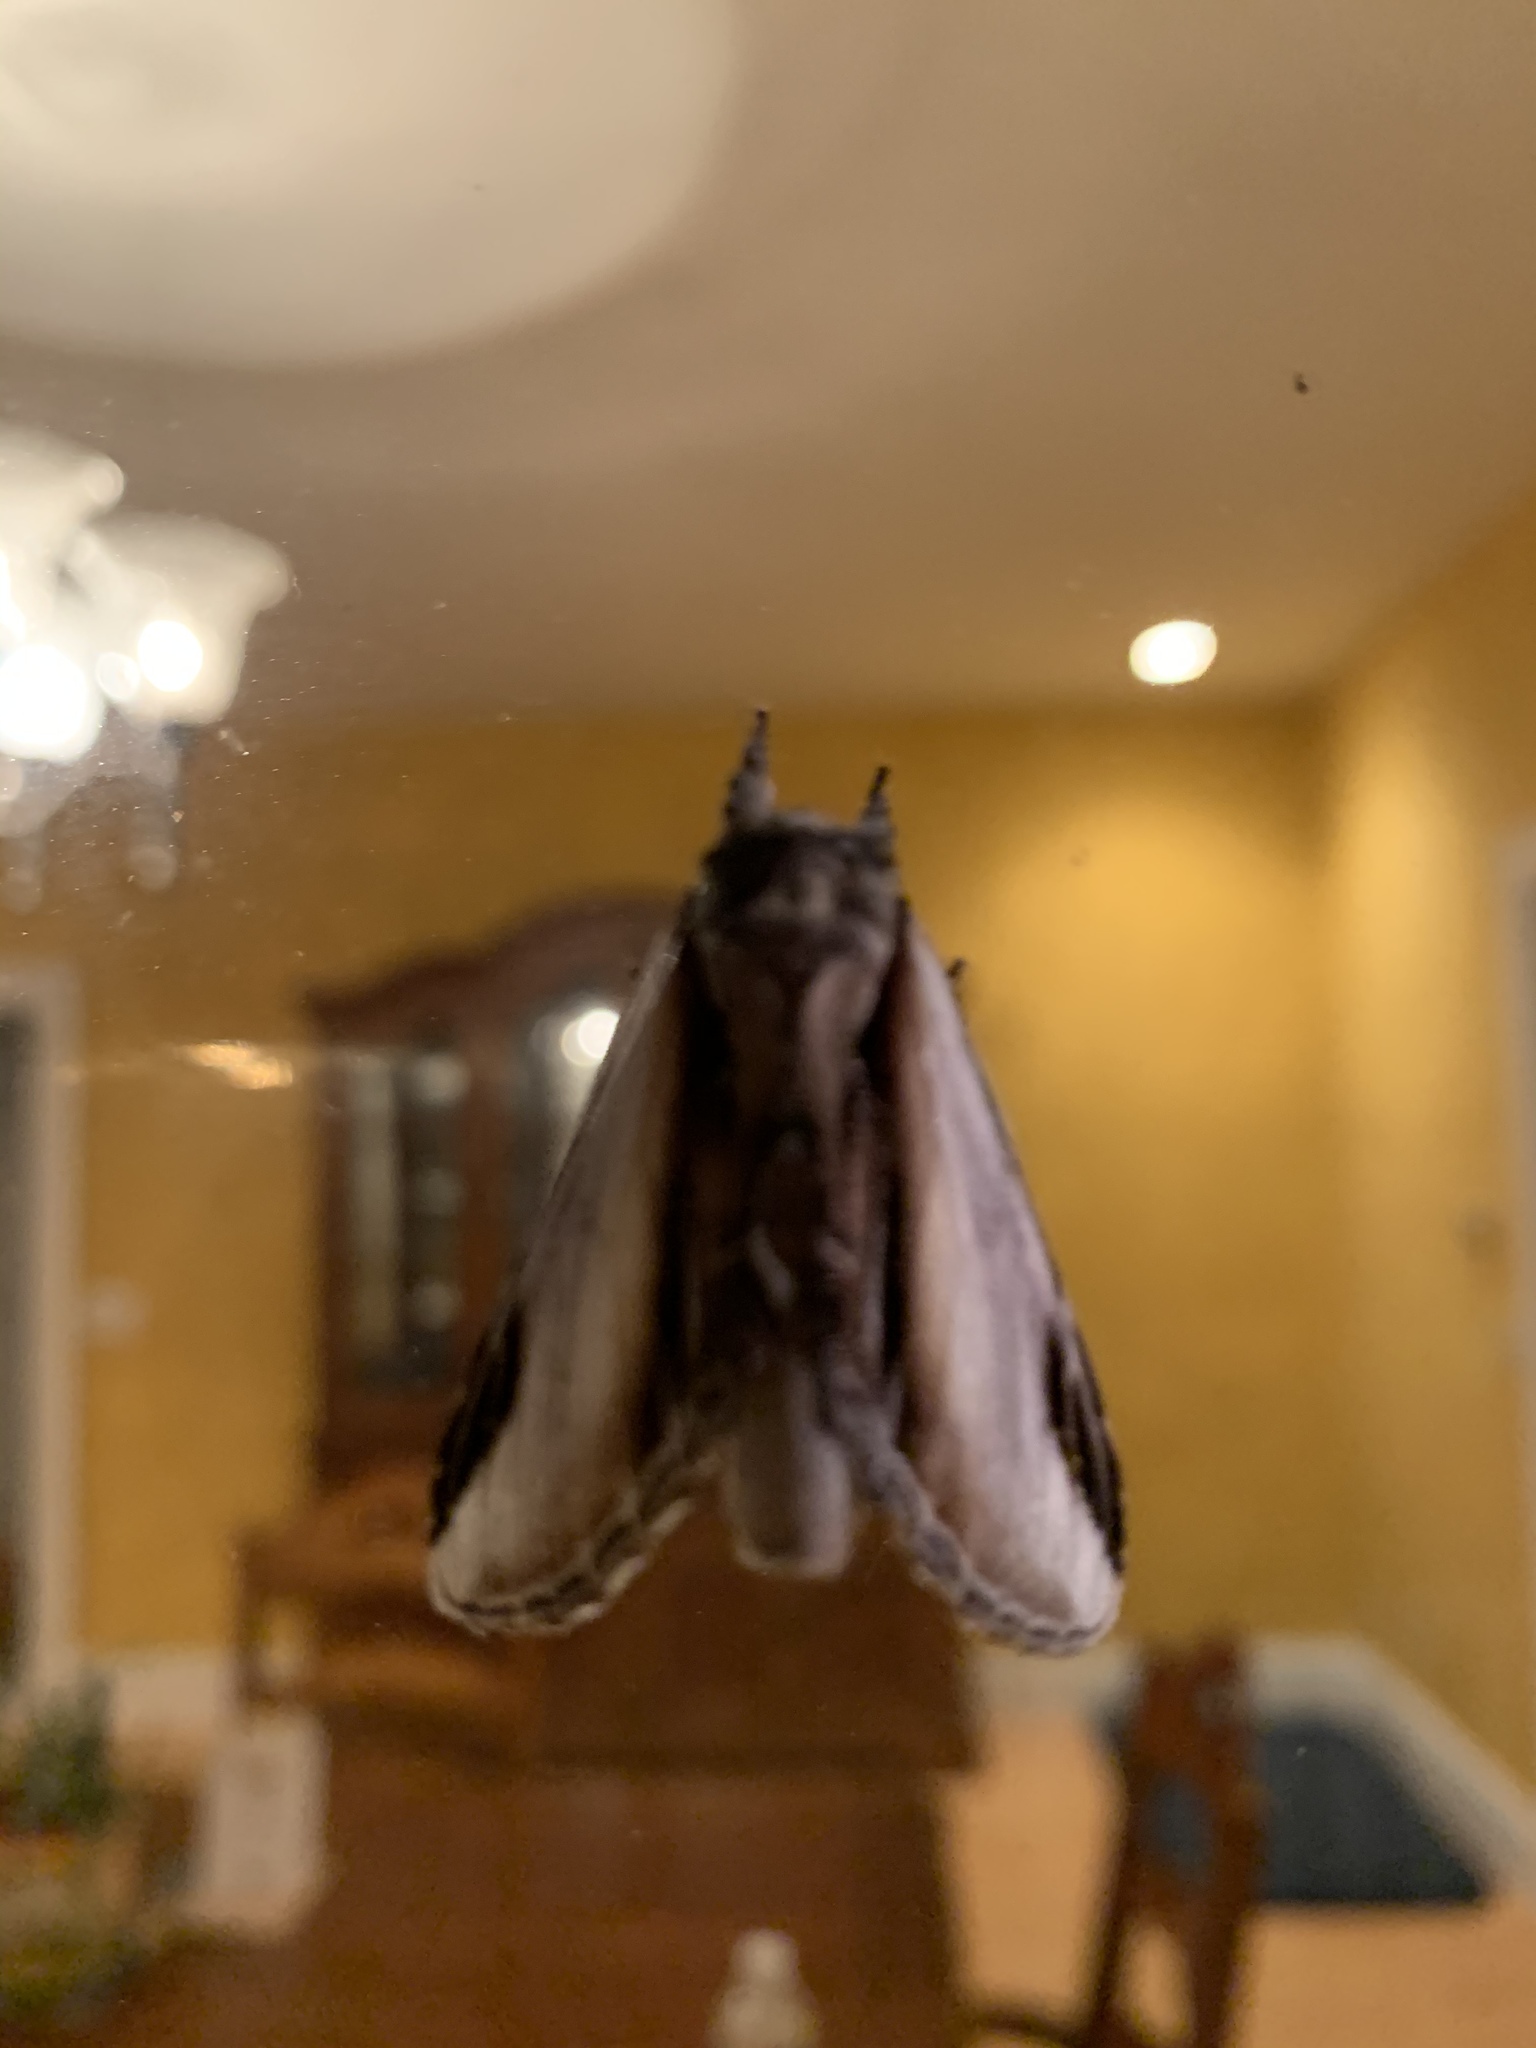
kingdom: Animalia
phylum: Arthropoda
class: Insecta
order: Lepidoptera
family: Notodontidae
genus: Pheosia
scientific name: Pheosia rimosa
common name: Black-rimmed prominent
